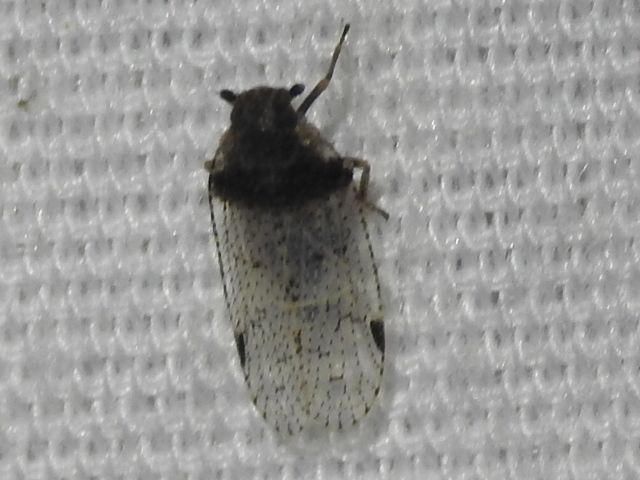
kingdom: Animalia
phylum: Arthropoda
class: Insecta
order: Hemiptera
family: Cixiidae
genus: Cixius
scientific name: Cixius stigmatus
